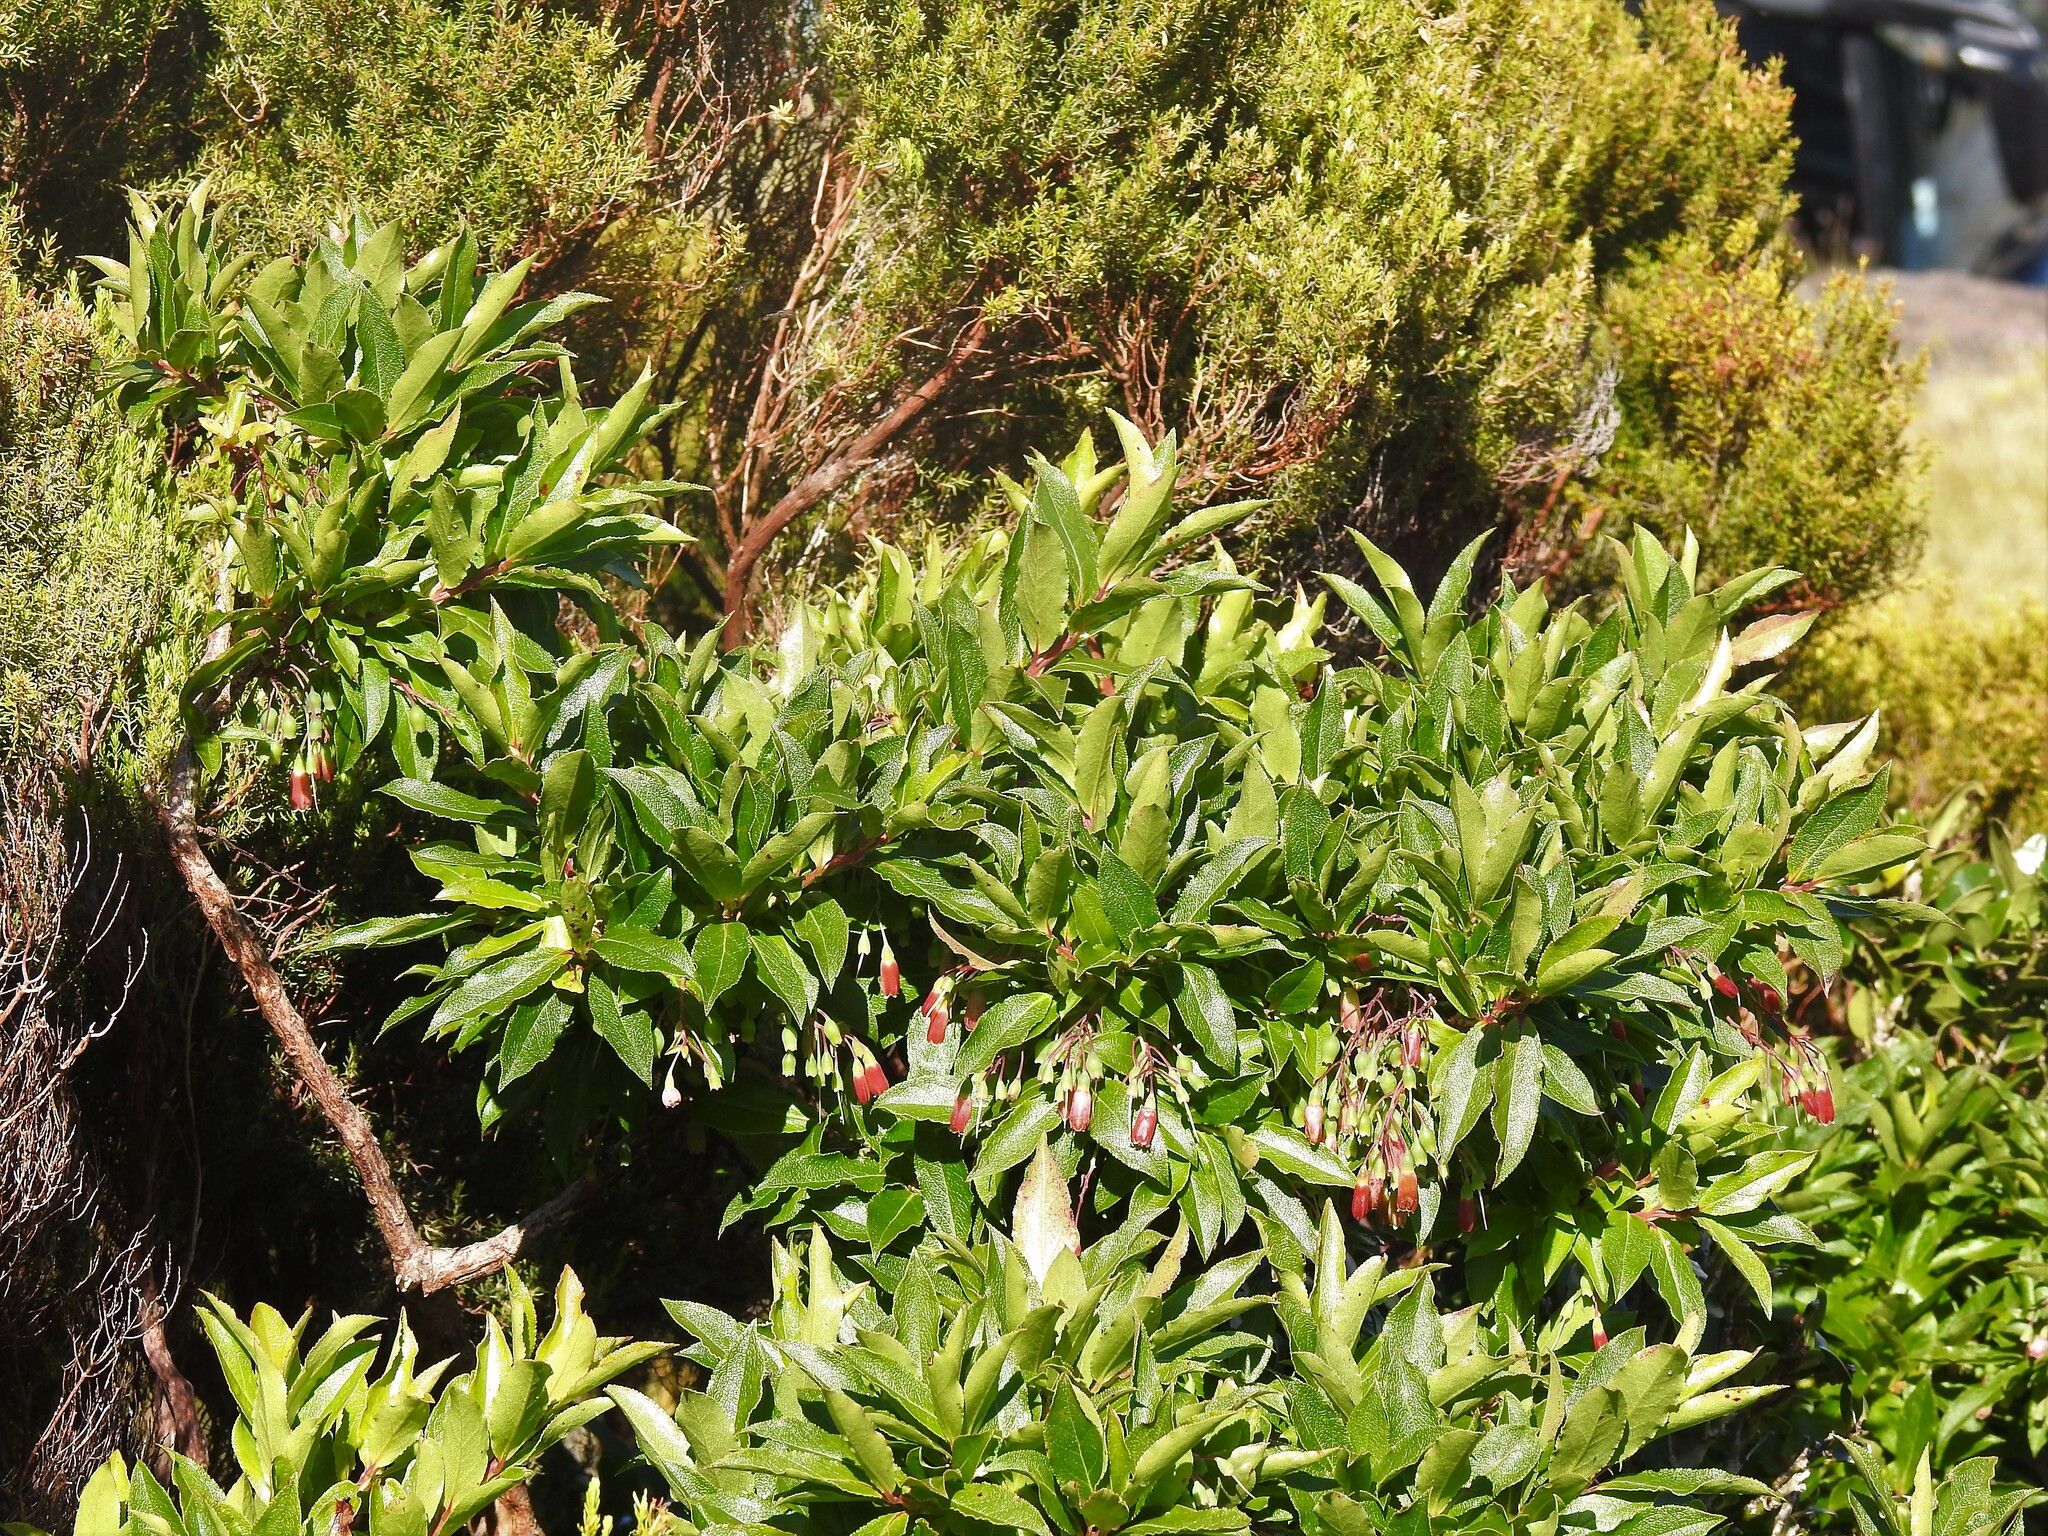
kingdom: Plantae
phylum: Tracheophyta
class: Magnoliopsida
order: Ericales
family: Ericaceae
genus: Vaccinium
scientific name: Vaccinium cylindraceum
